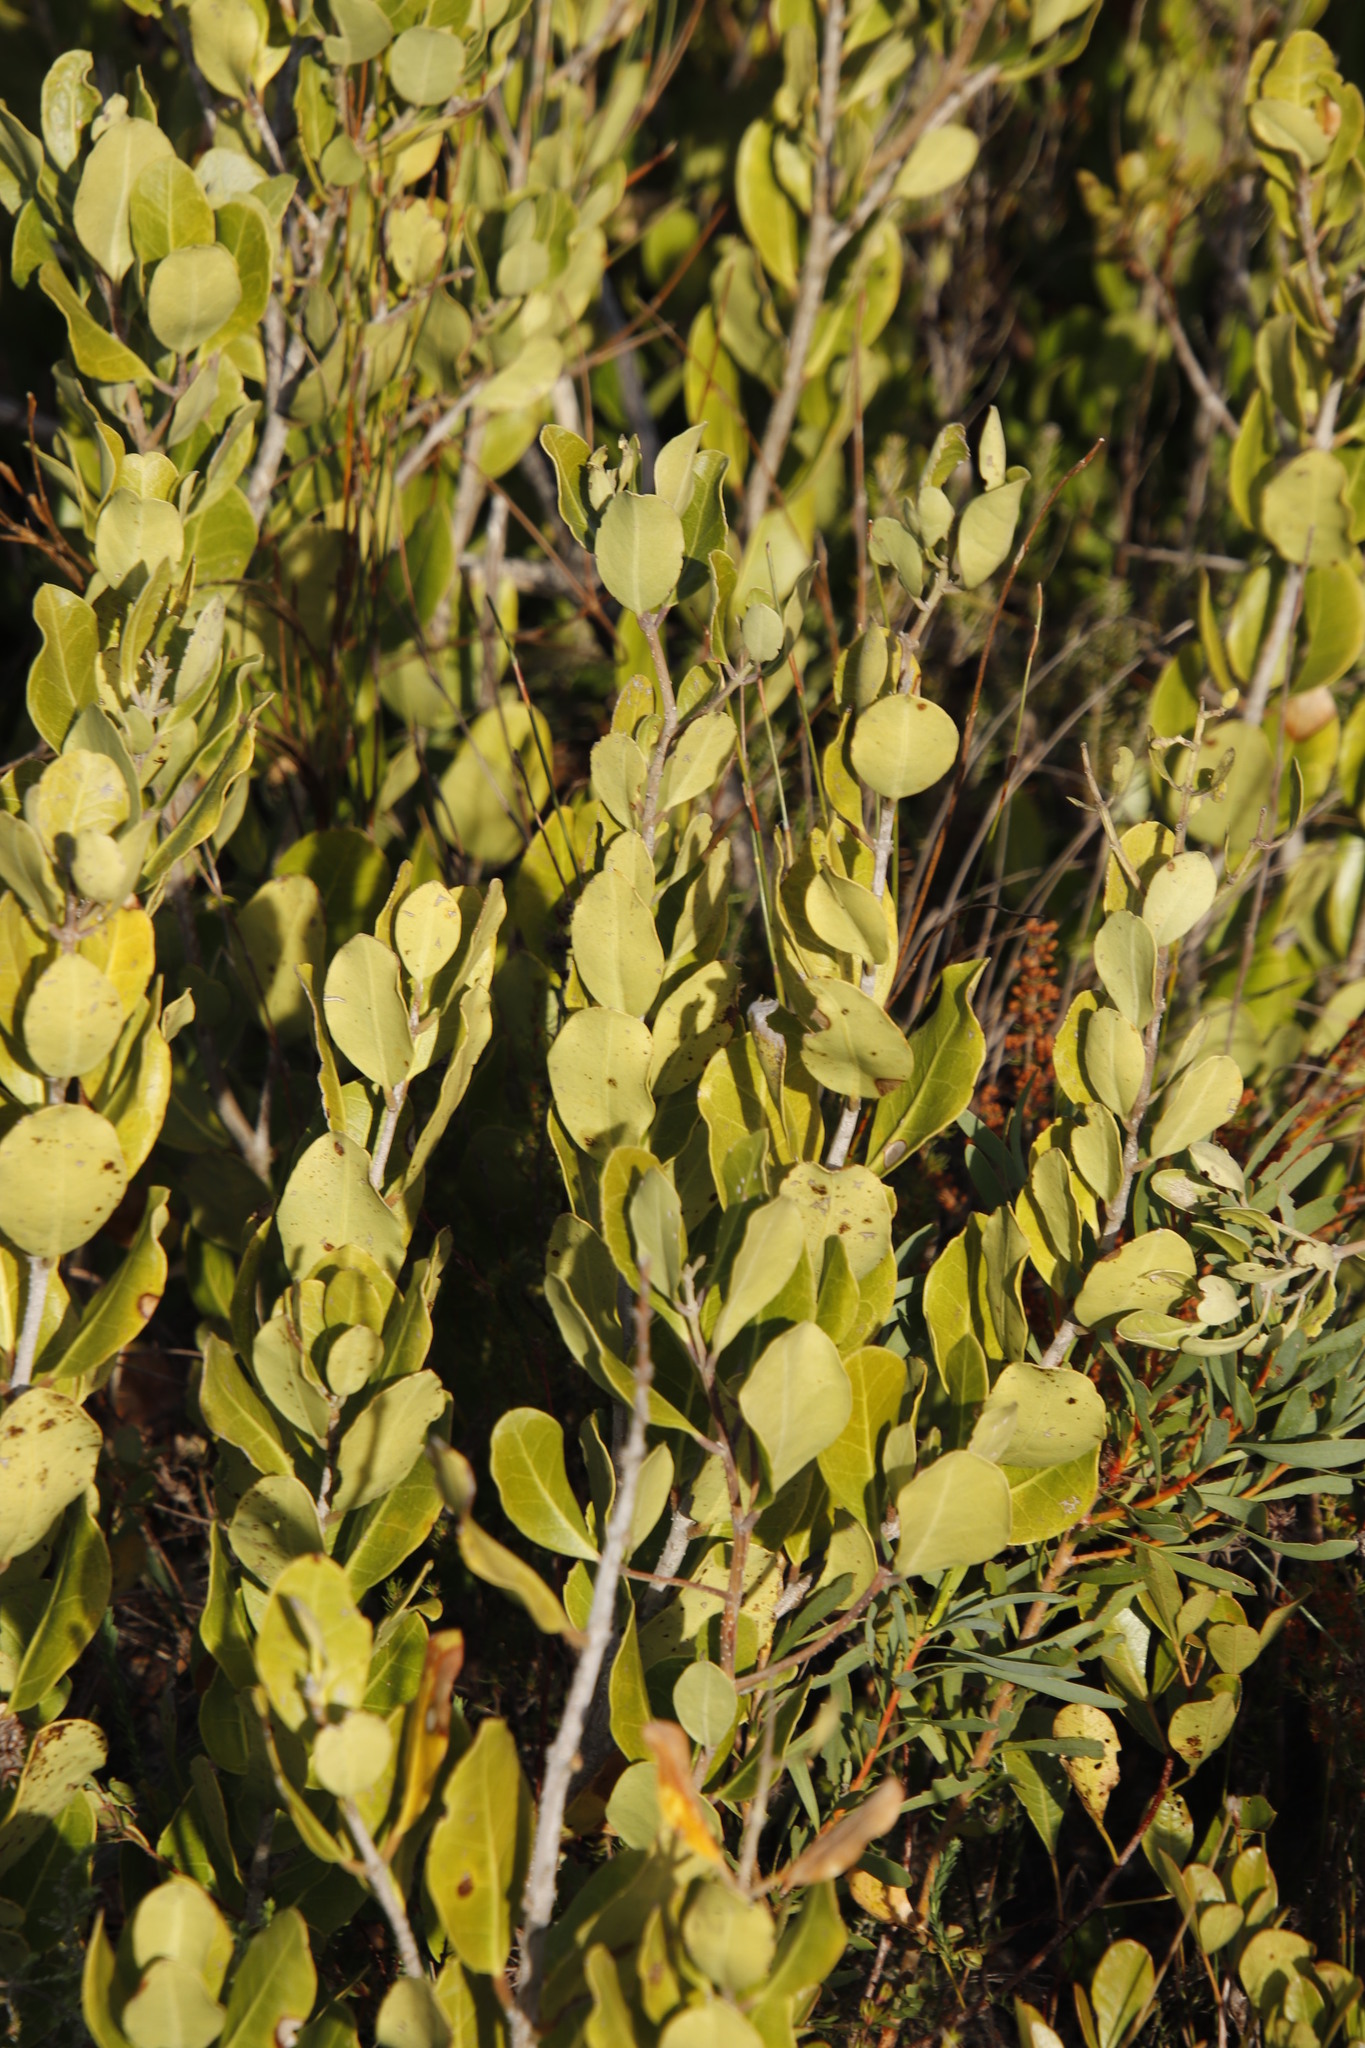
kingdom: Plantae
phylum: Tracheophyta
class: Magnoliopsida
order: Lamiales
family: Oleaceae
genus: Olea
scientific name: Olea capensis
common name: Black ironwood
